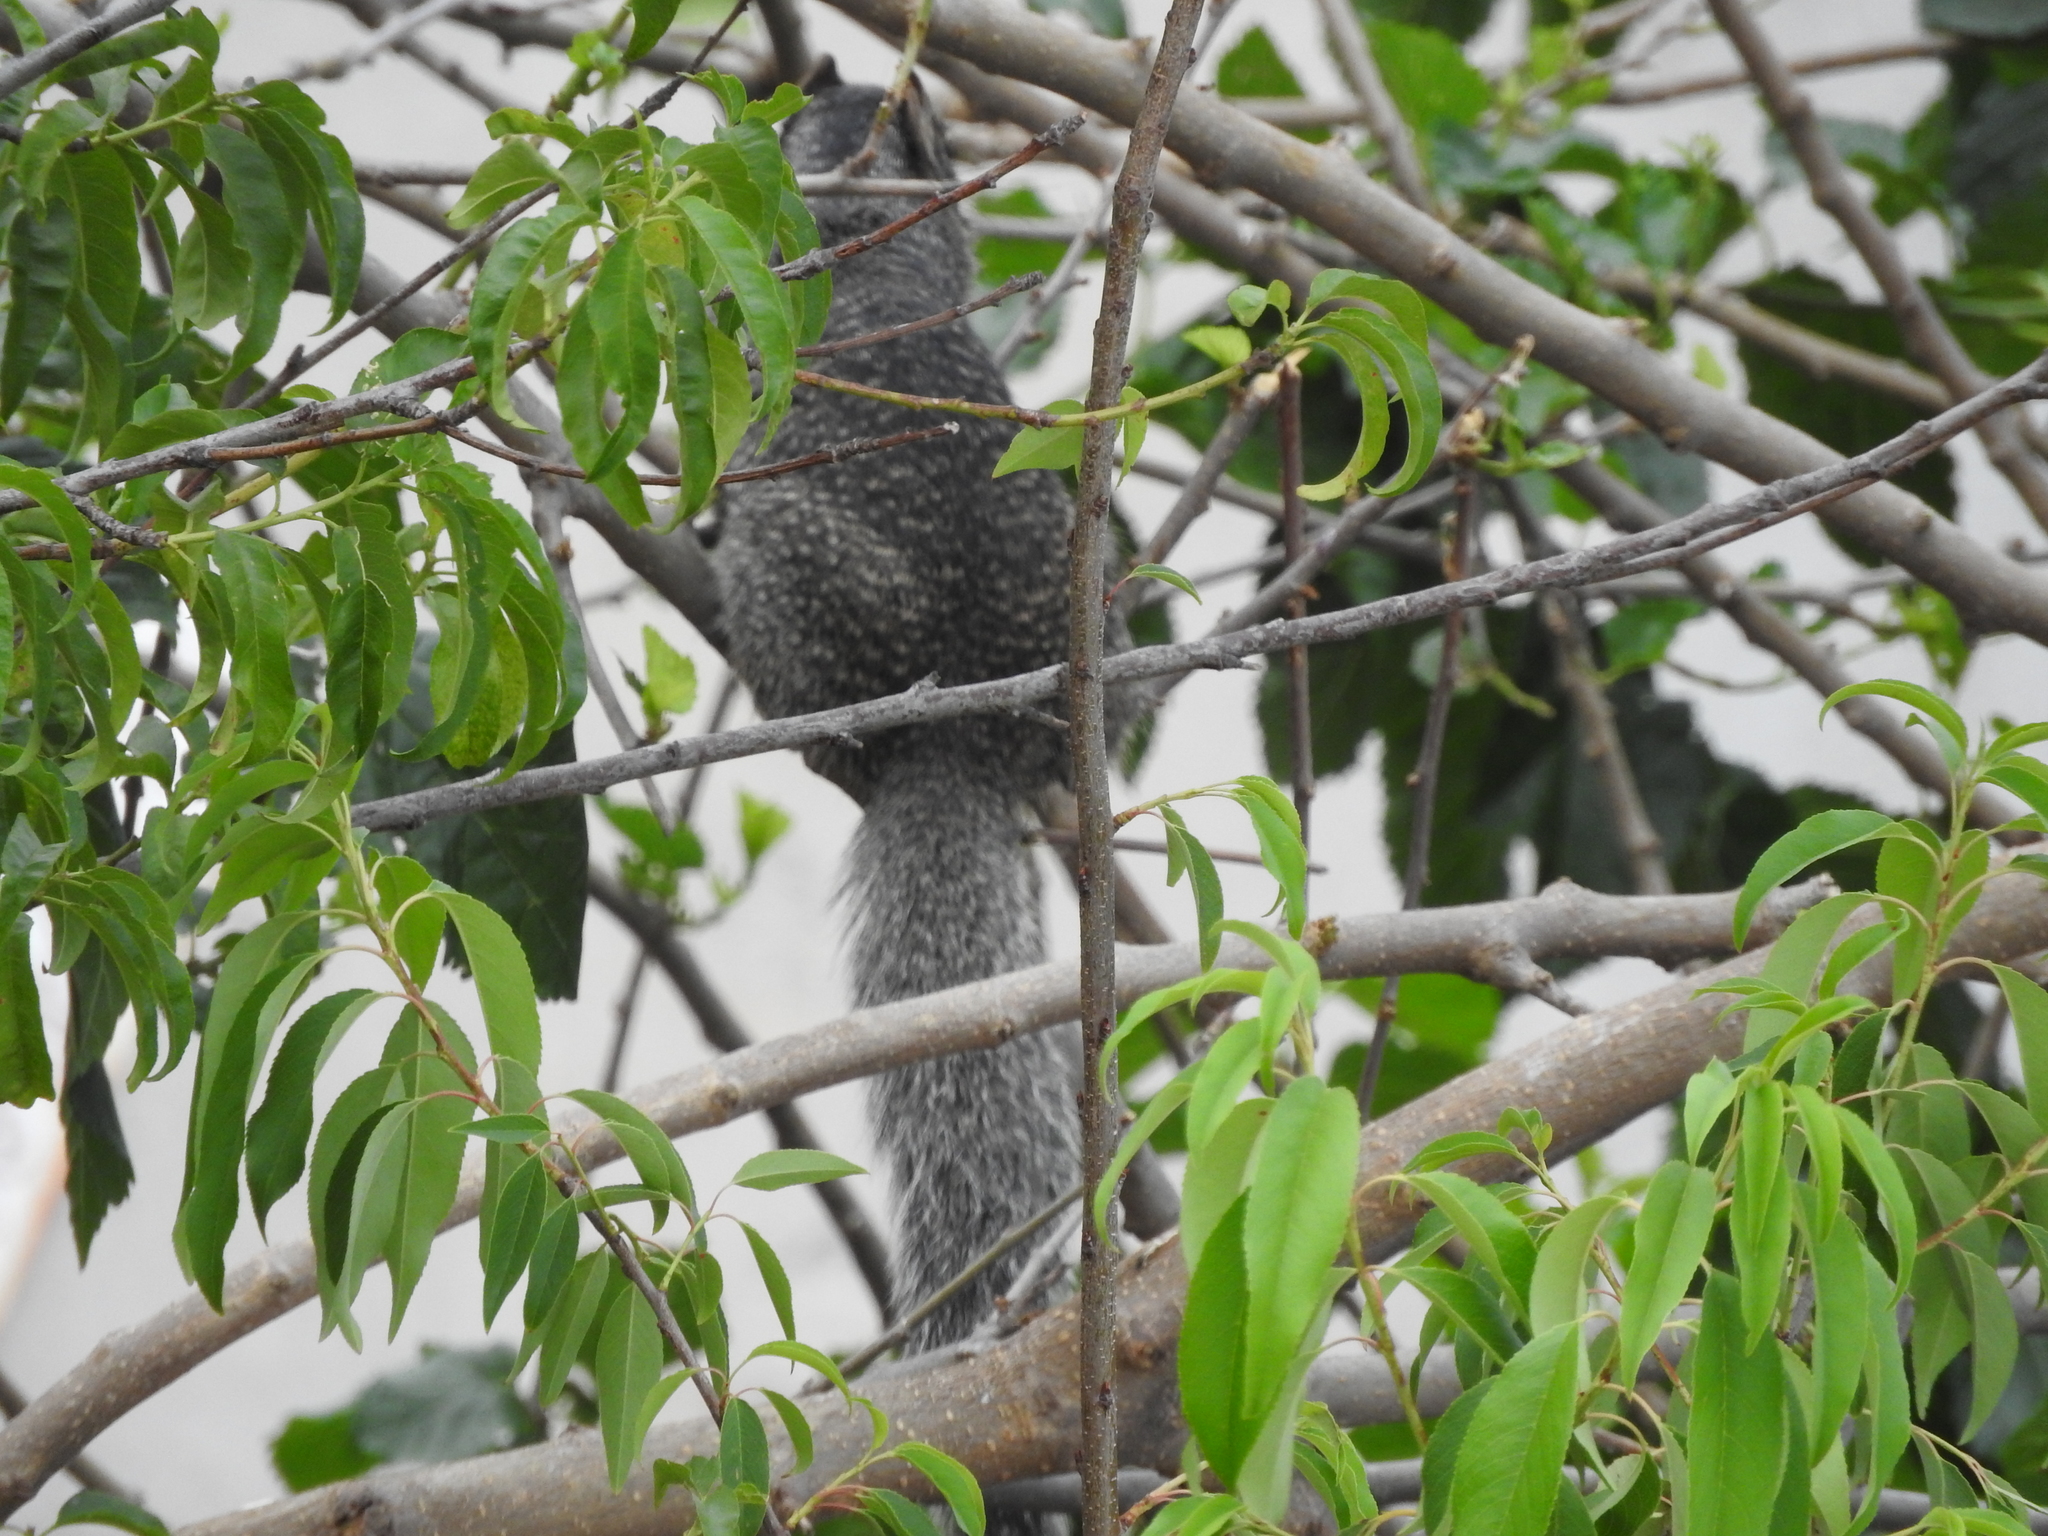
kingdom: Animalia
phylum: Chordata
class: Mammalia
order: Rodentia
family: Sciuridae
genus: Otospermophilus
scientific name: Otospermophilus variegatus
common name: Rock squirrel
